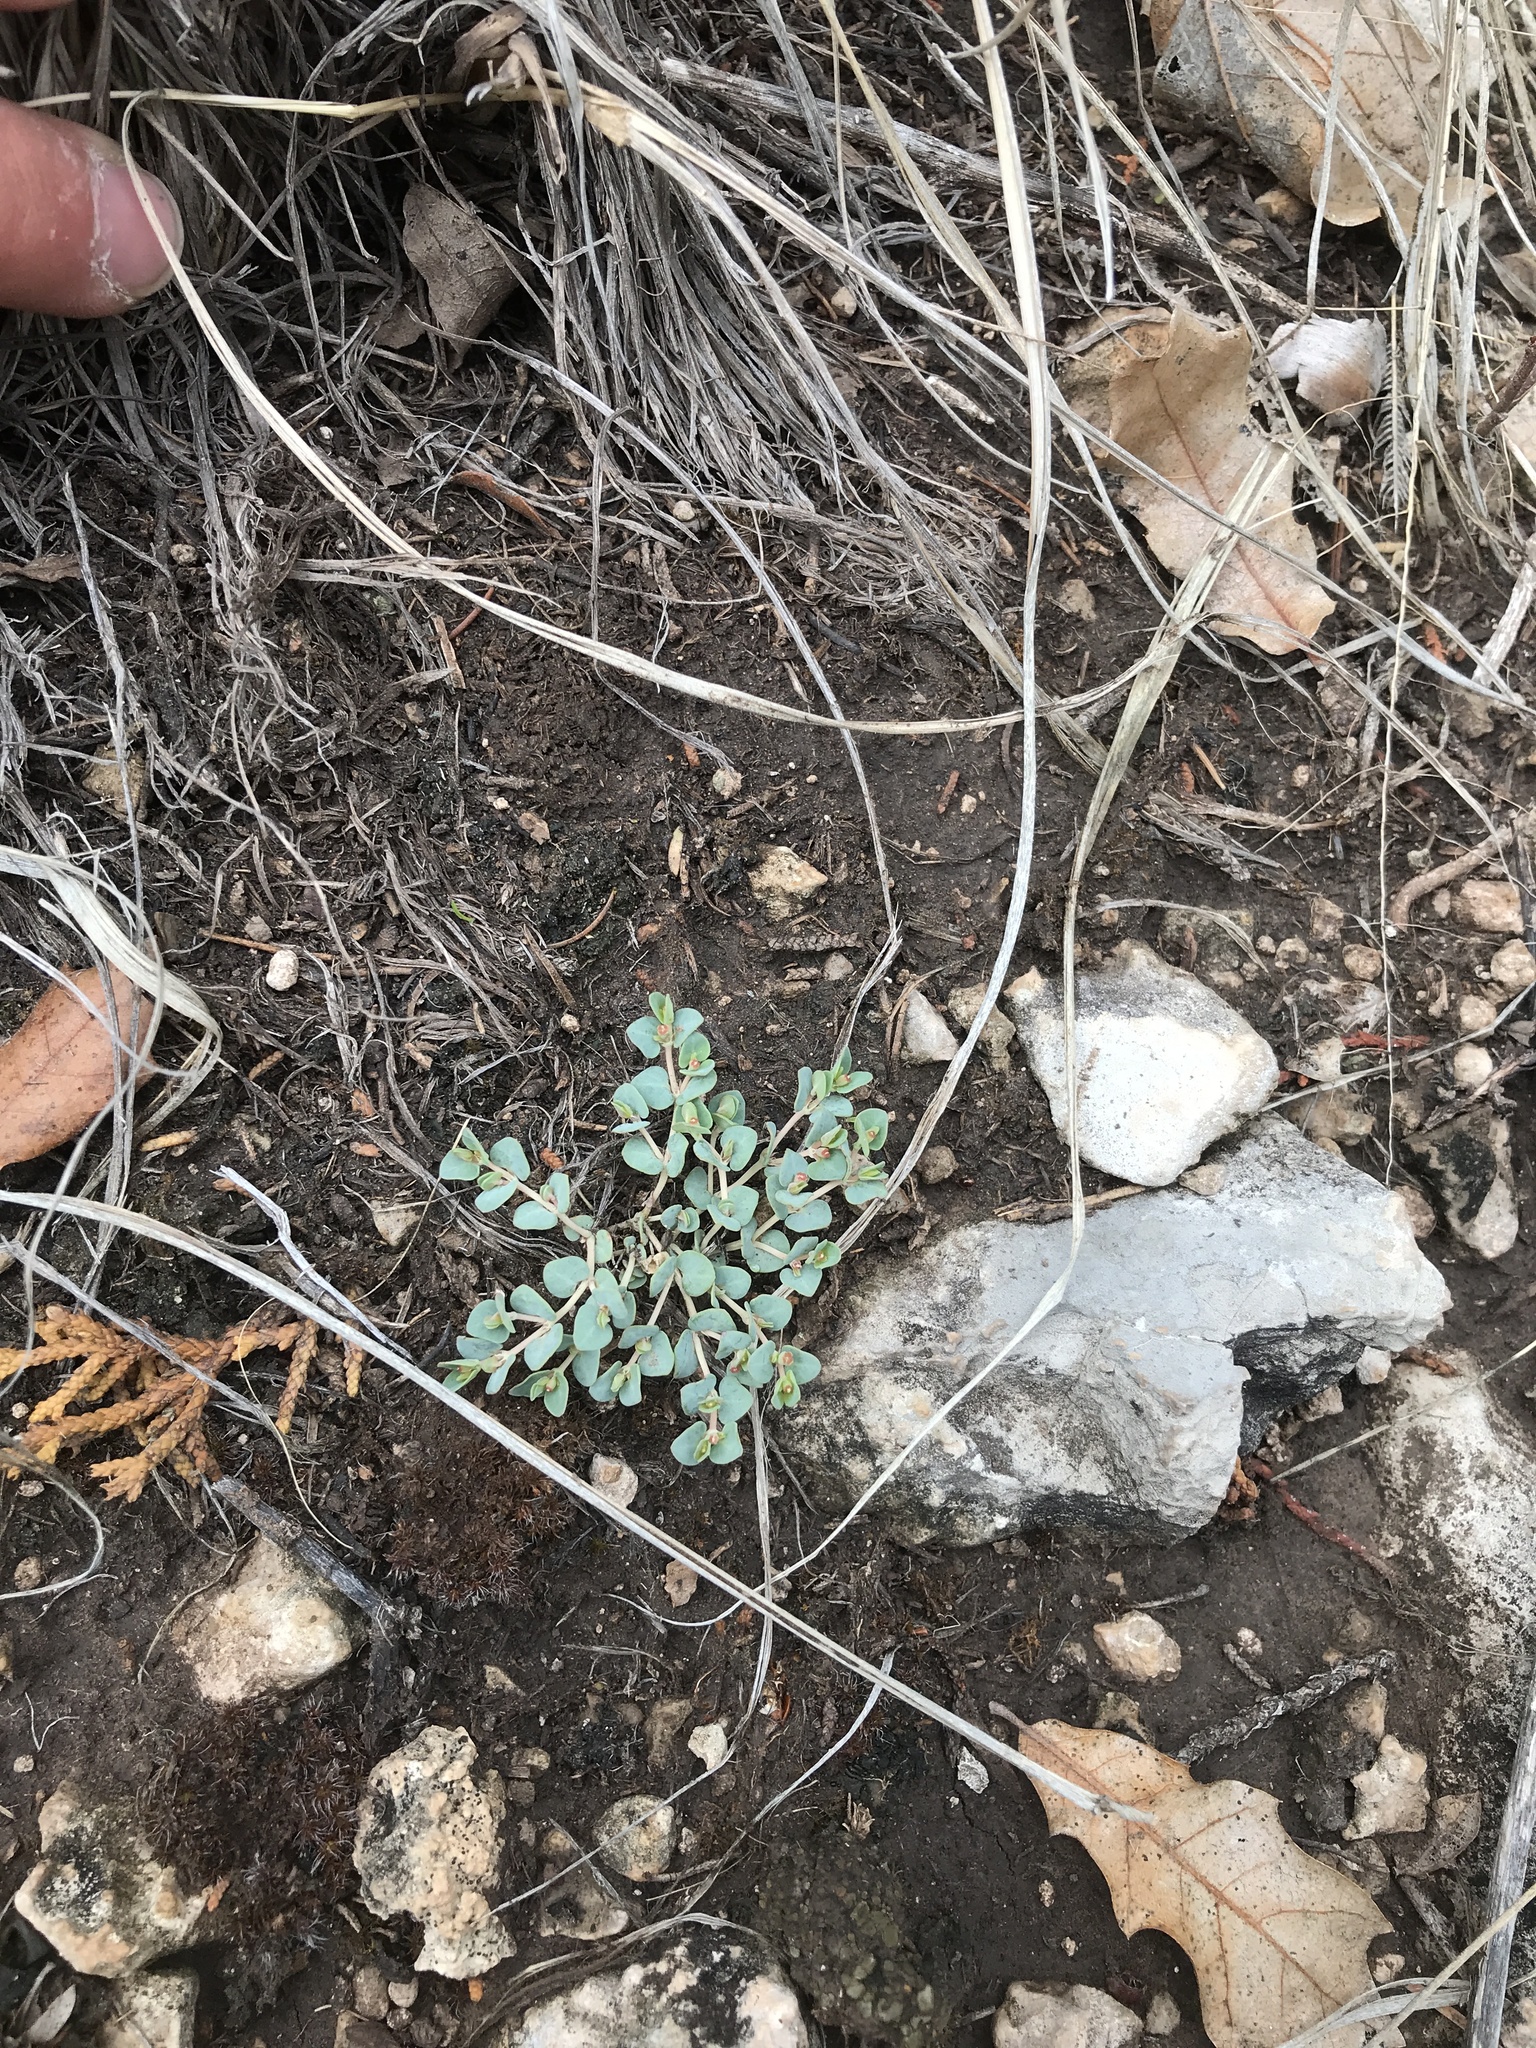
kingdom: Plantae
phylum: Tracheophyta
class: Magnoliopsida
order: Malpighiales
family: Euphorbiaceae
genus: Euphorbia
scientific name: Euphorbia fendleri
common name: Fendler's euphorbia
